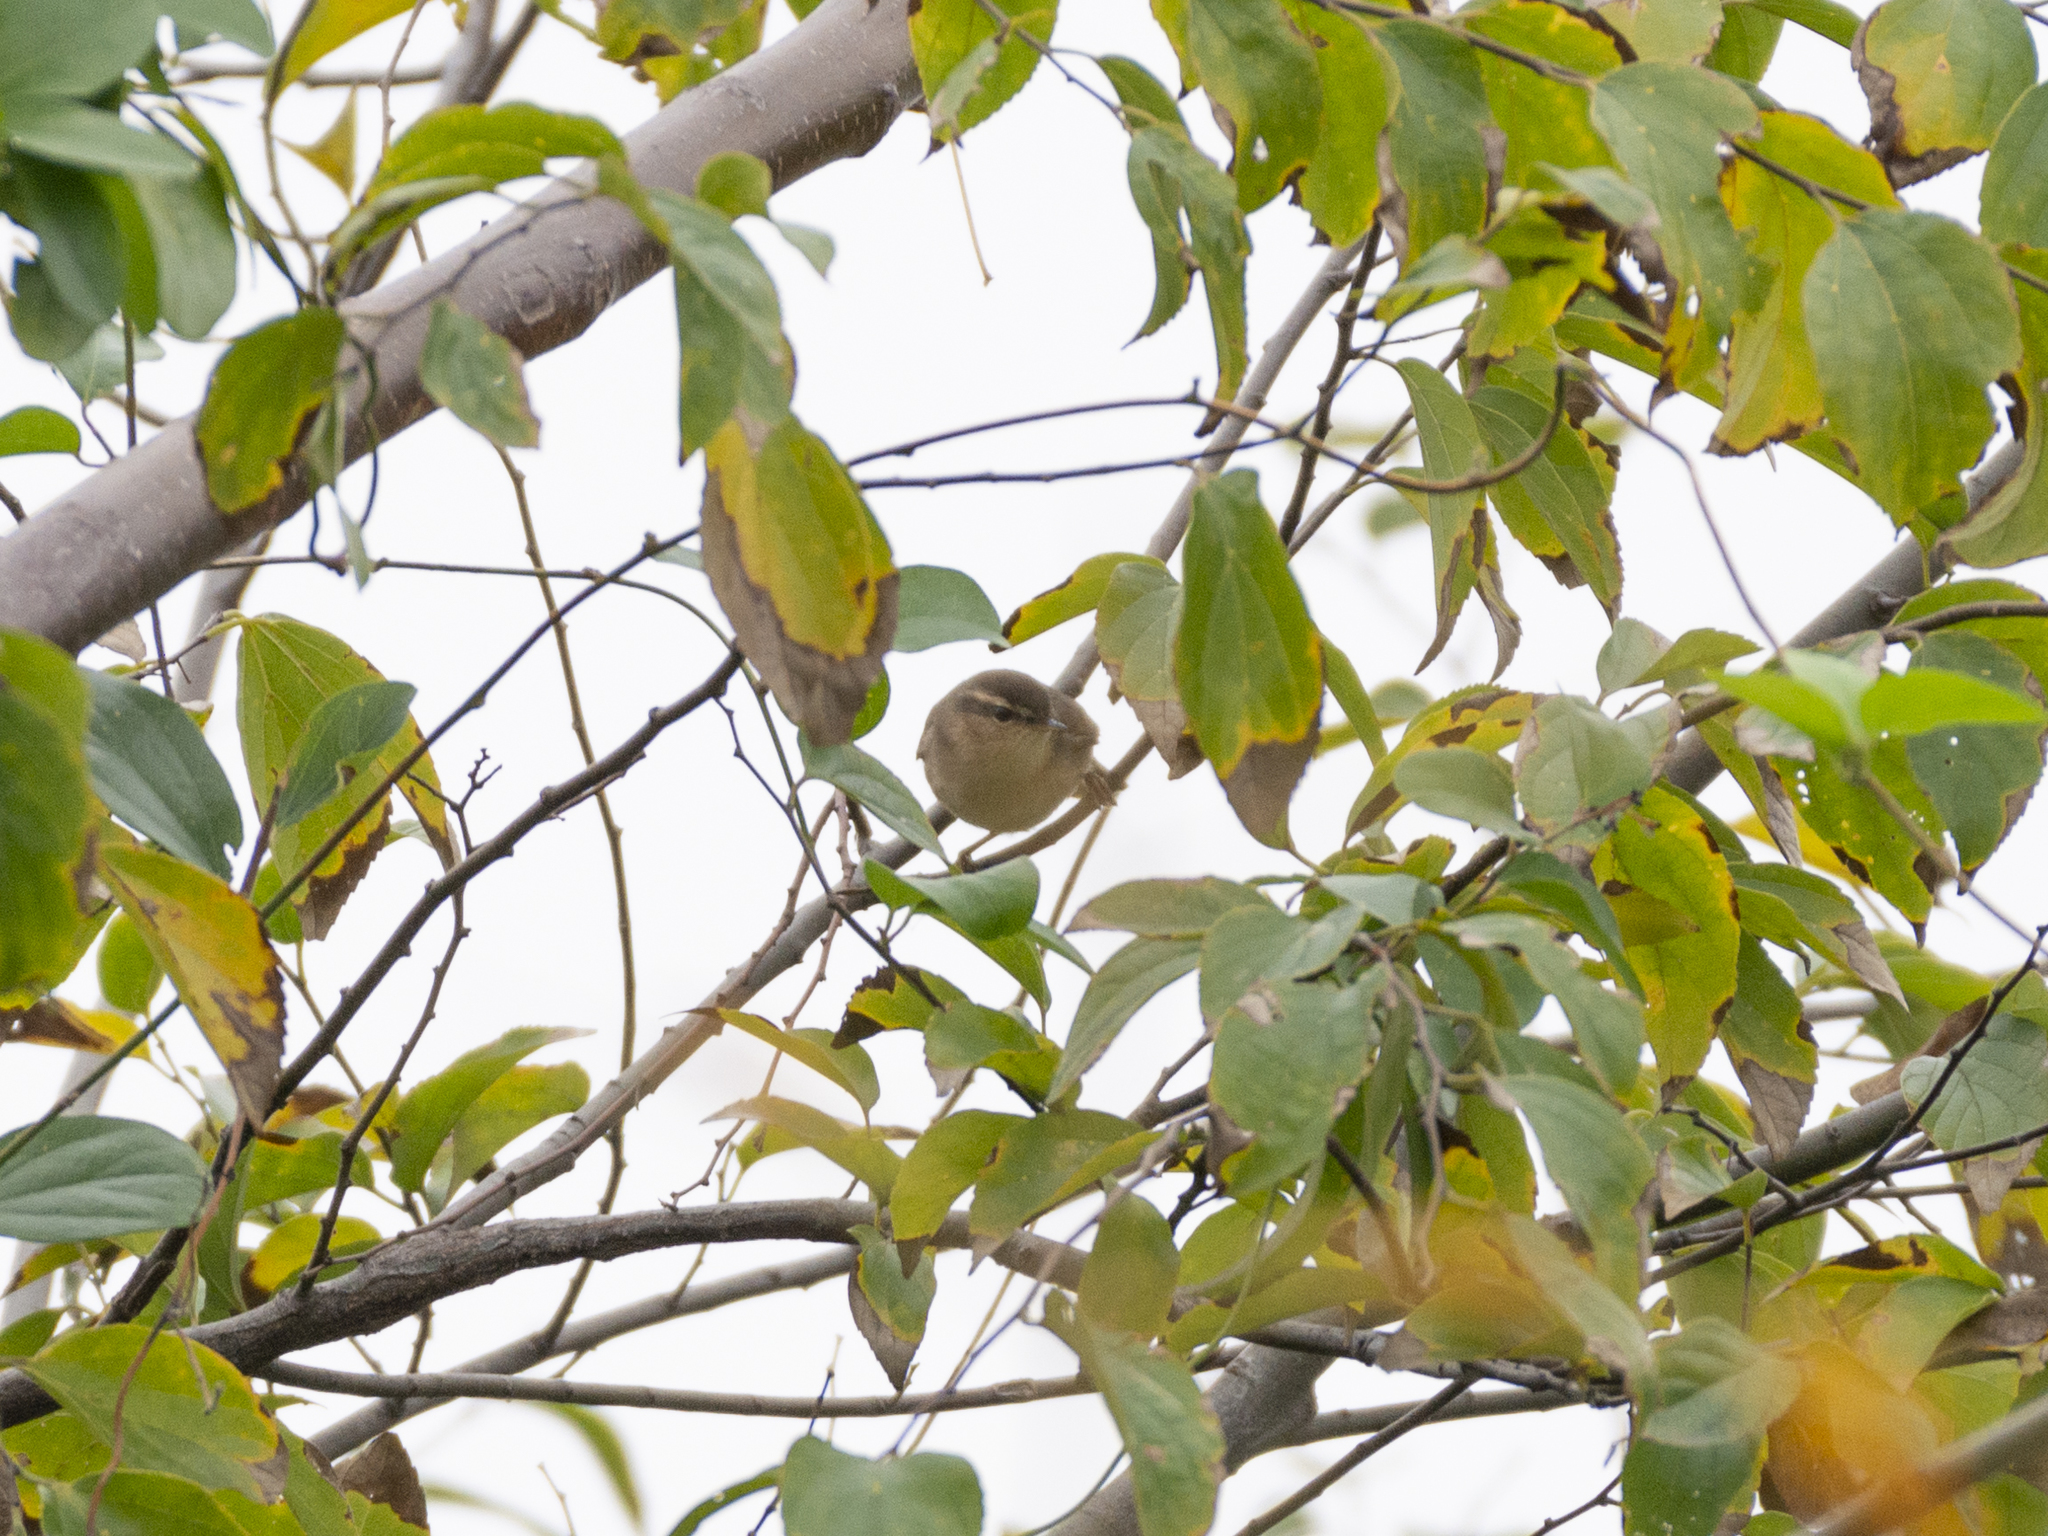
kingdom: Animalia
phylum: Chordata
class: Aves
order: Passeriformes
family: Phylloscopidae
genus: Phylloscopus
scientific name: Phylloscopus fuscatus
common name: Dusky warbler
